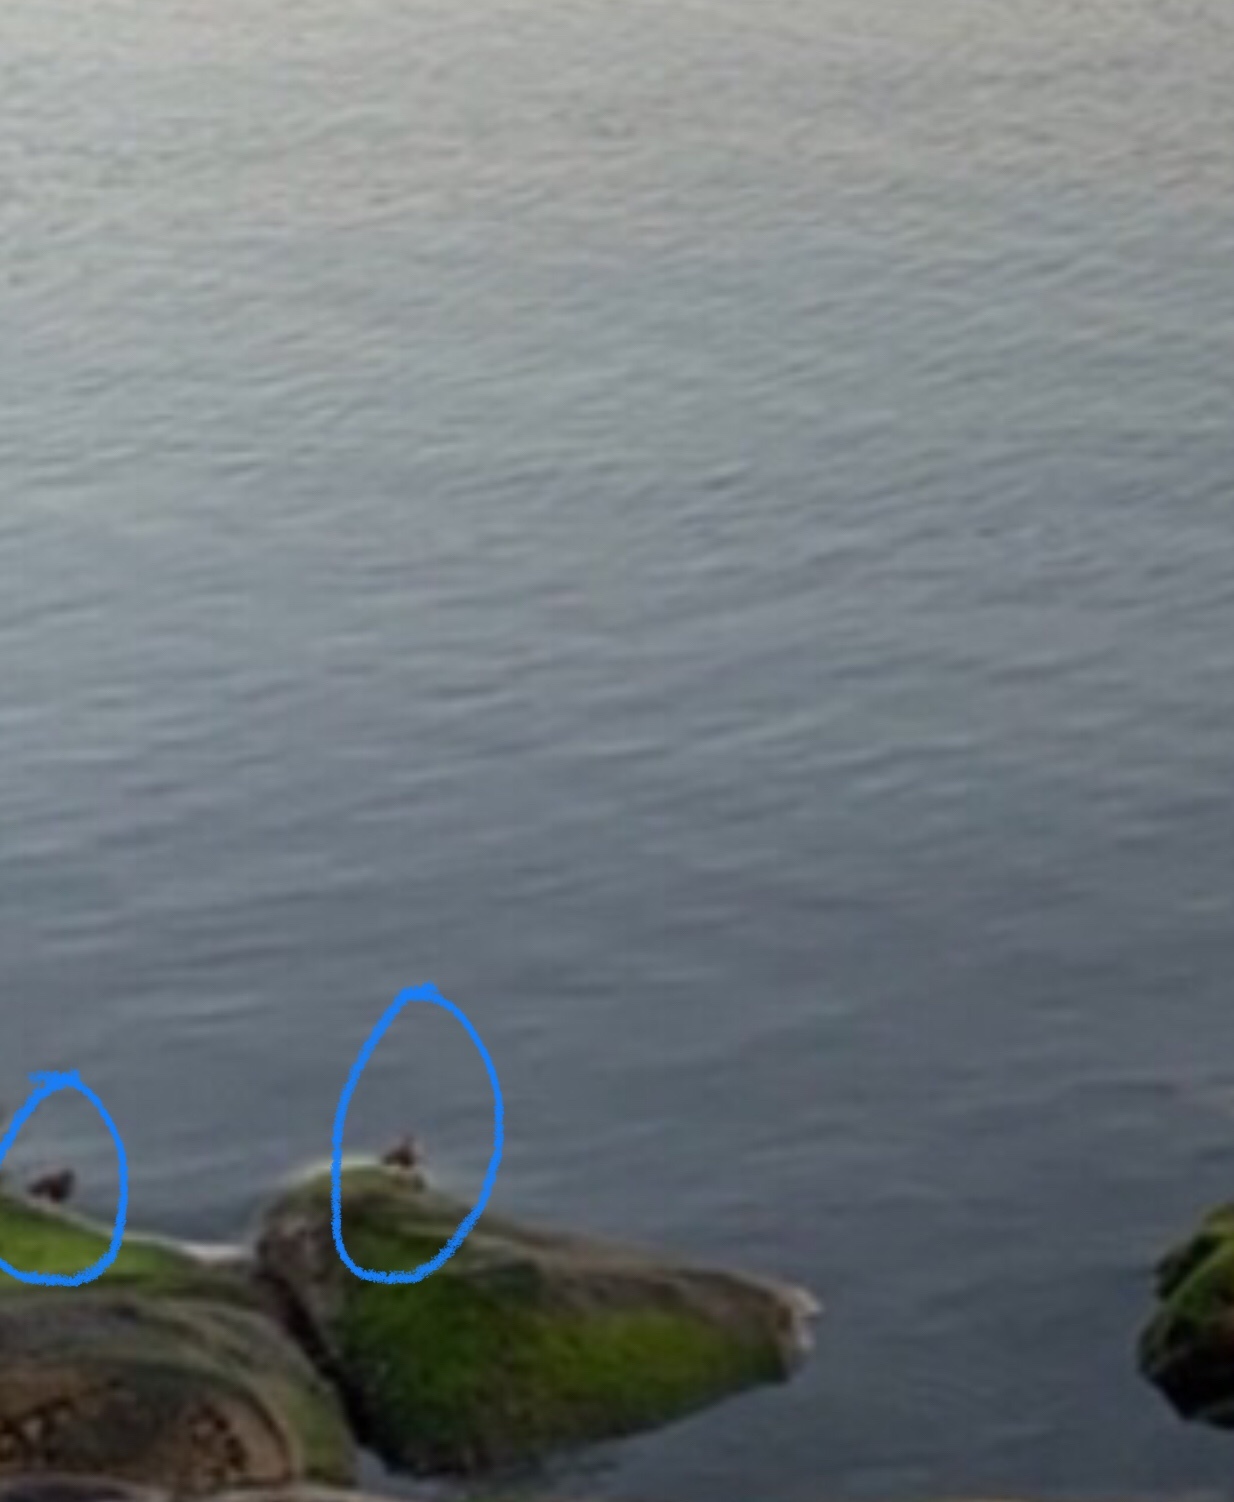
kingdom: Animalia
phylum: Chordata
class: Aves
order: Charadriiformes
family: Scolopacidae
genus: Arenaria
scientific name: Arenaria melanocephala
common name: Black turnstone
